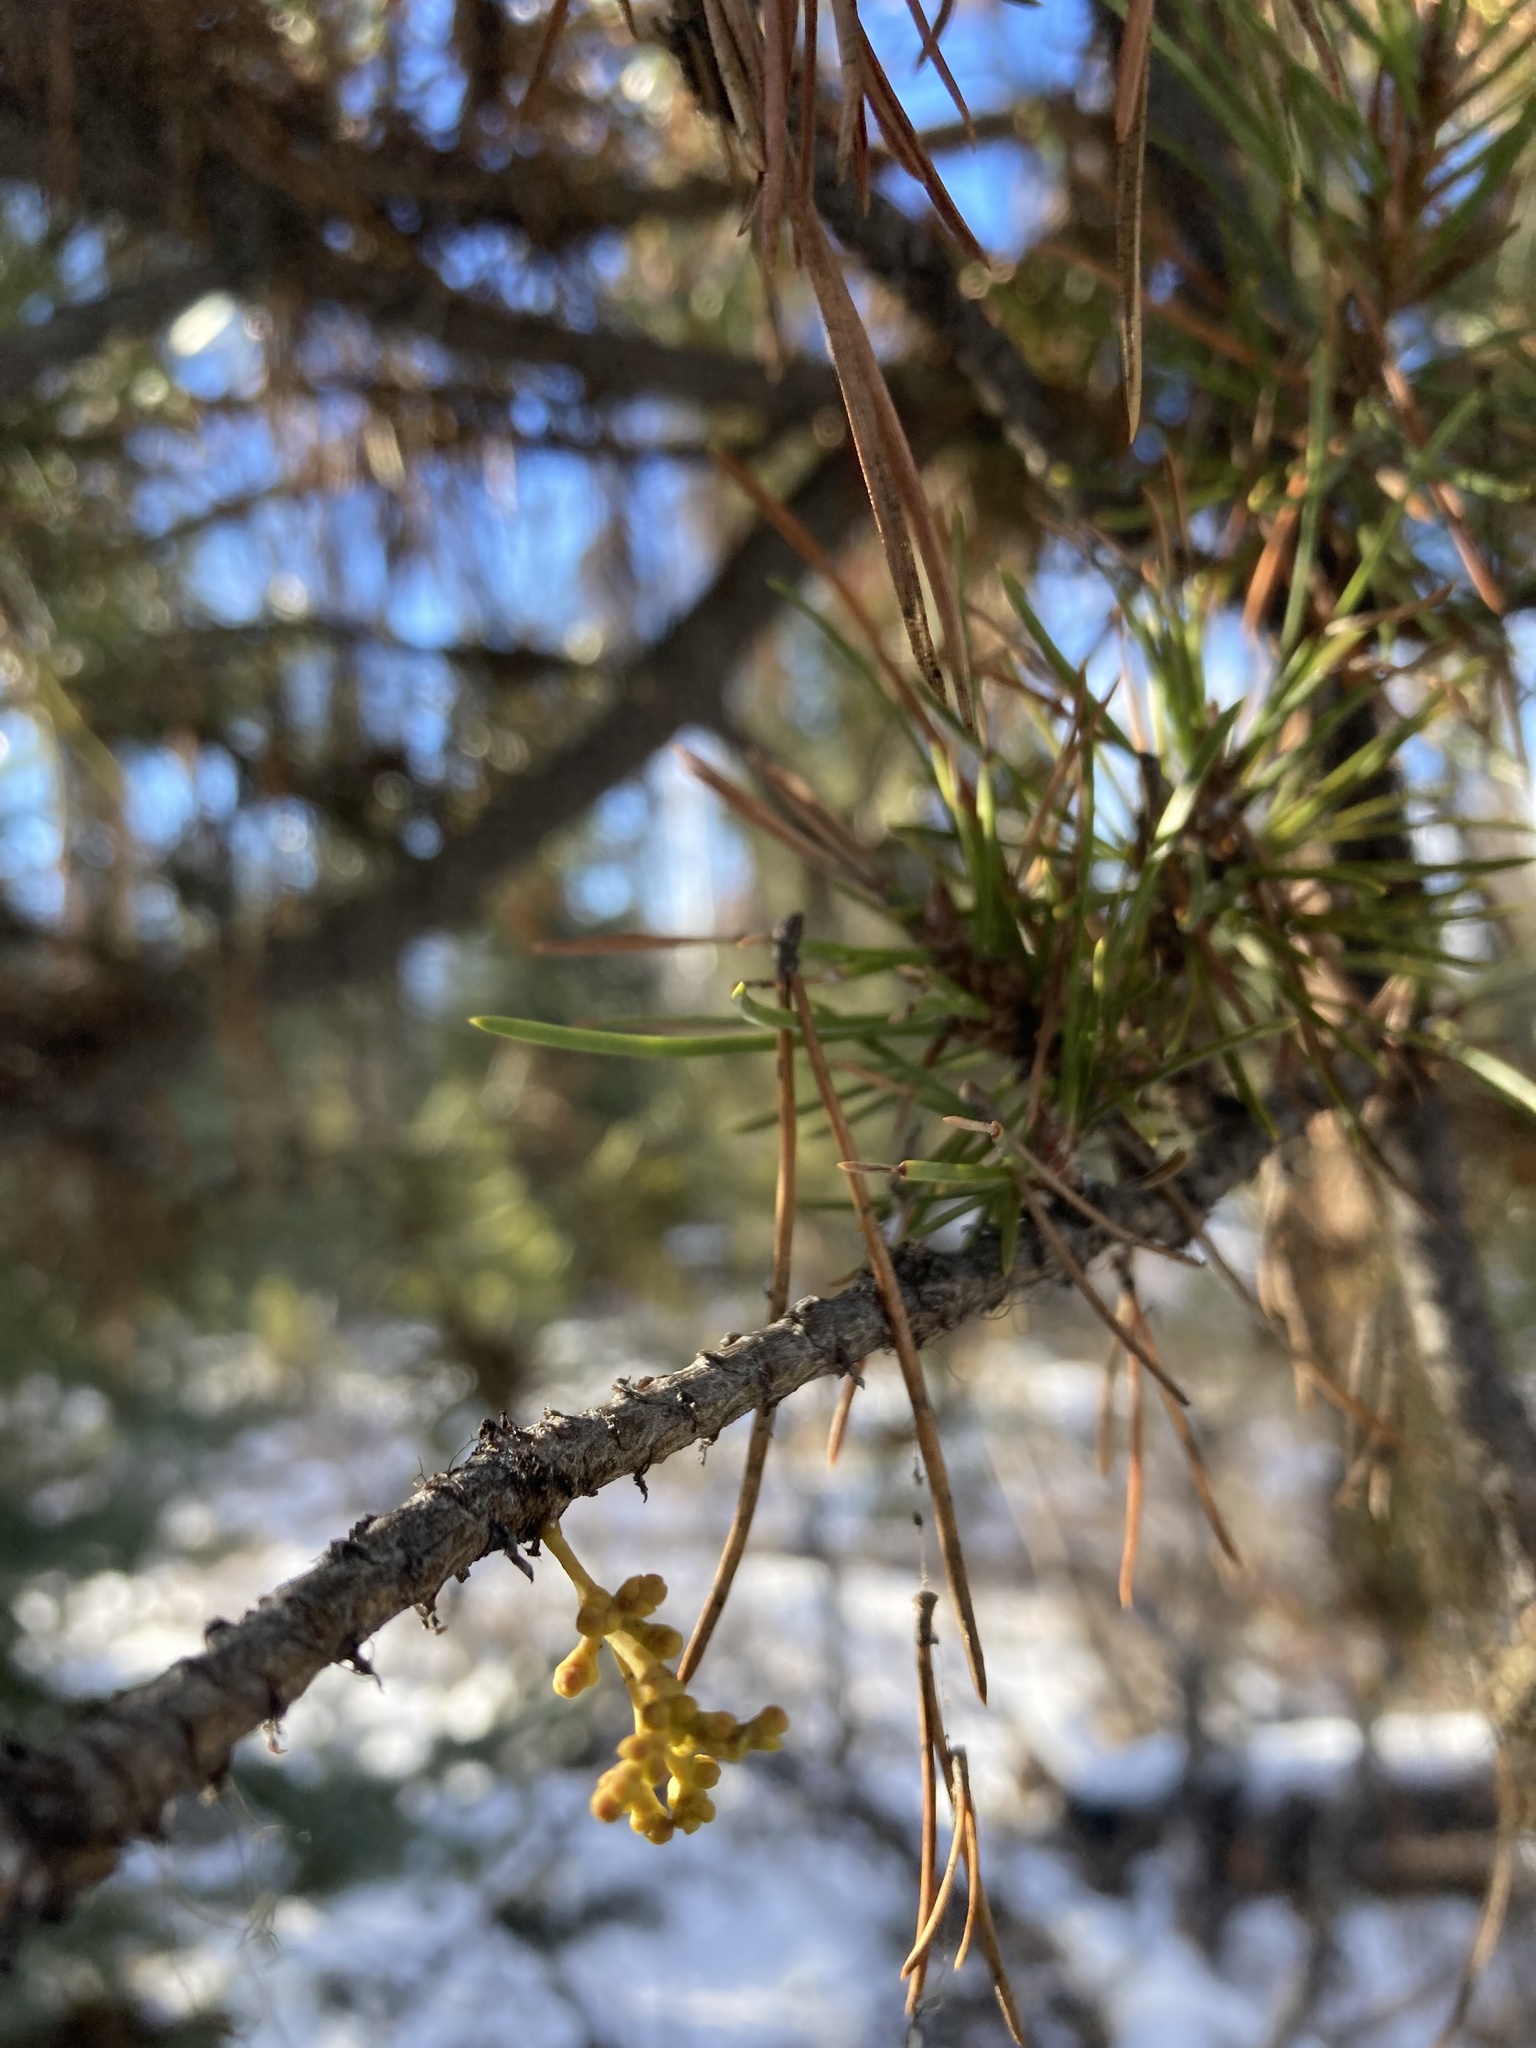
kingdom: Plantae
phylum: Tracheophyta
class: Magnoliopsida
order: Santalales
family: Viscaceae
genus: Arceuthobium
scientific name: Arceuthobium americanum
